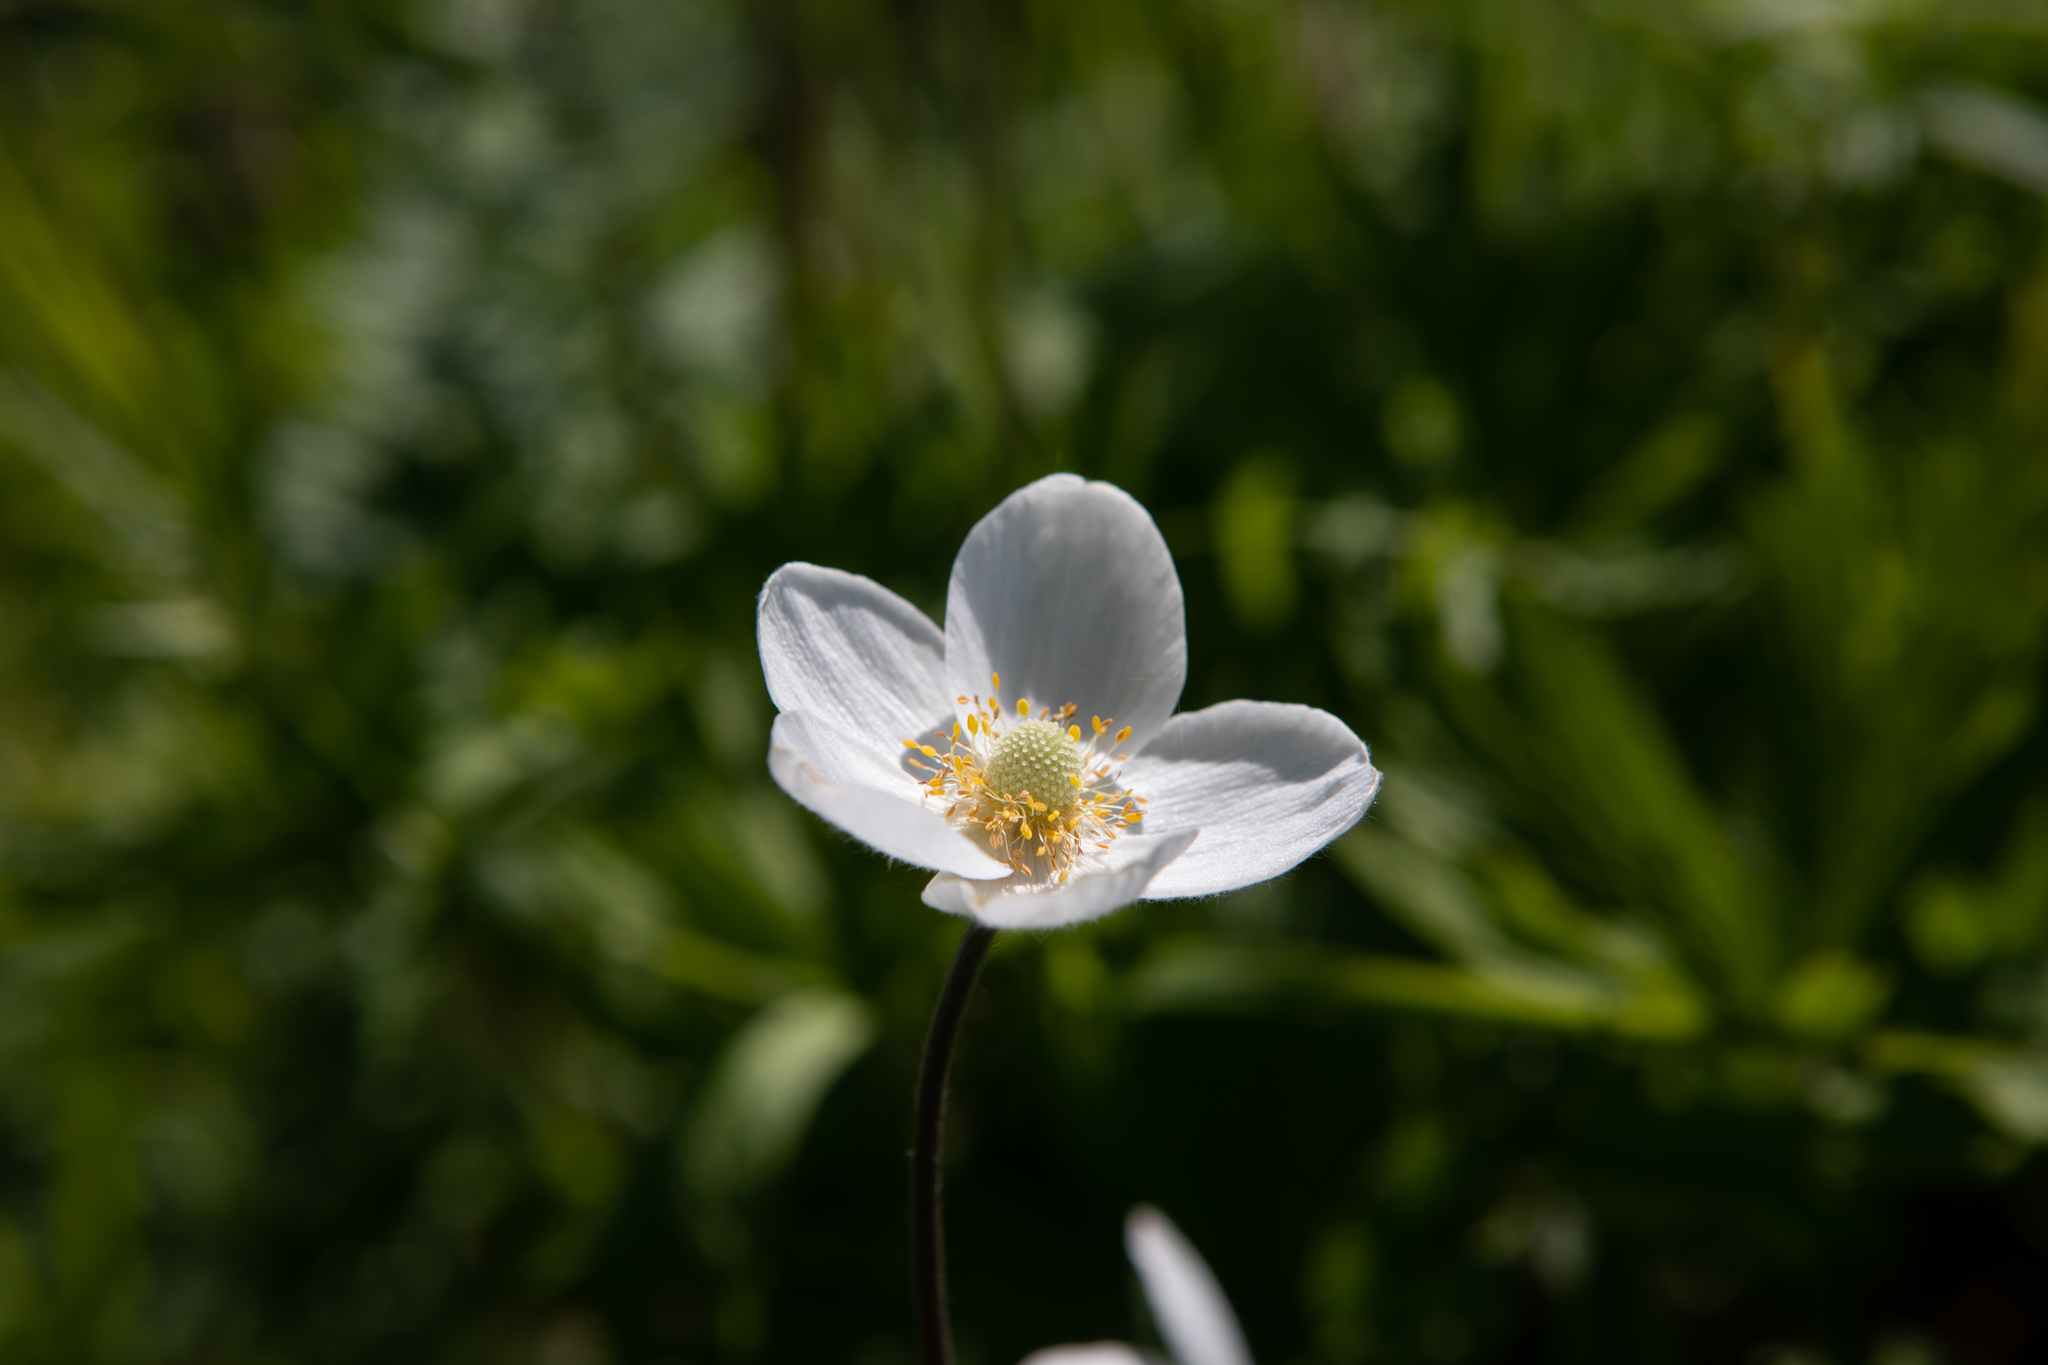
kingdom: Plantae
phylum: Tracheophyta
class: Magnoliopsida
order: Ranunculales
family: Ranunculaceae
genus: Anemone
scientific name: Anemone sylvestris
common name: Snowdrop anemone
